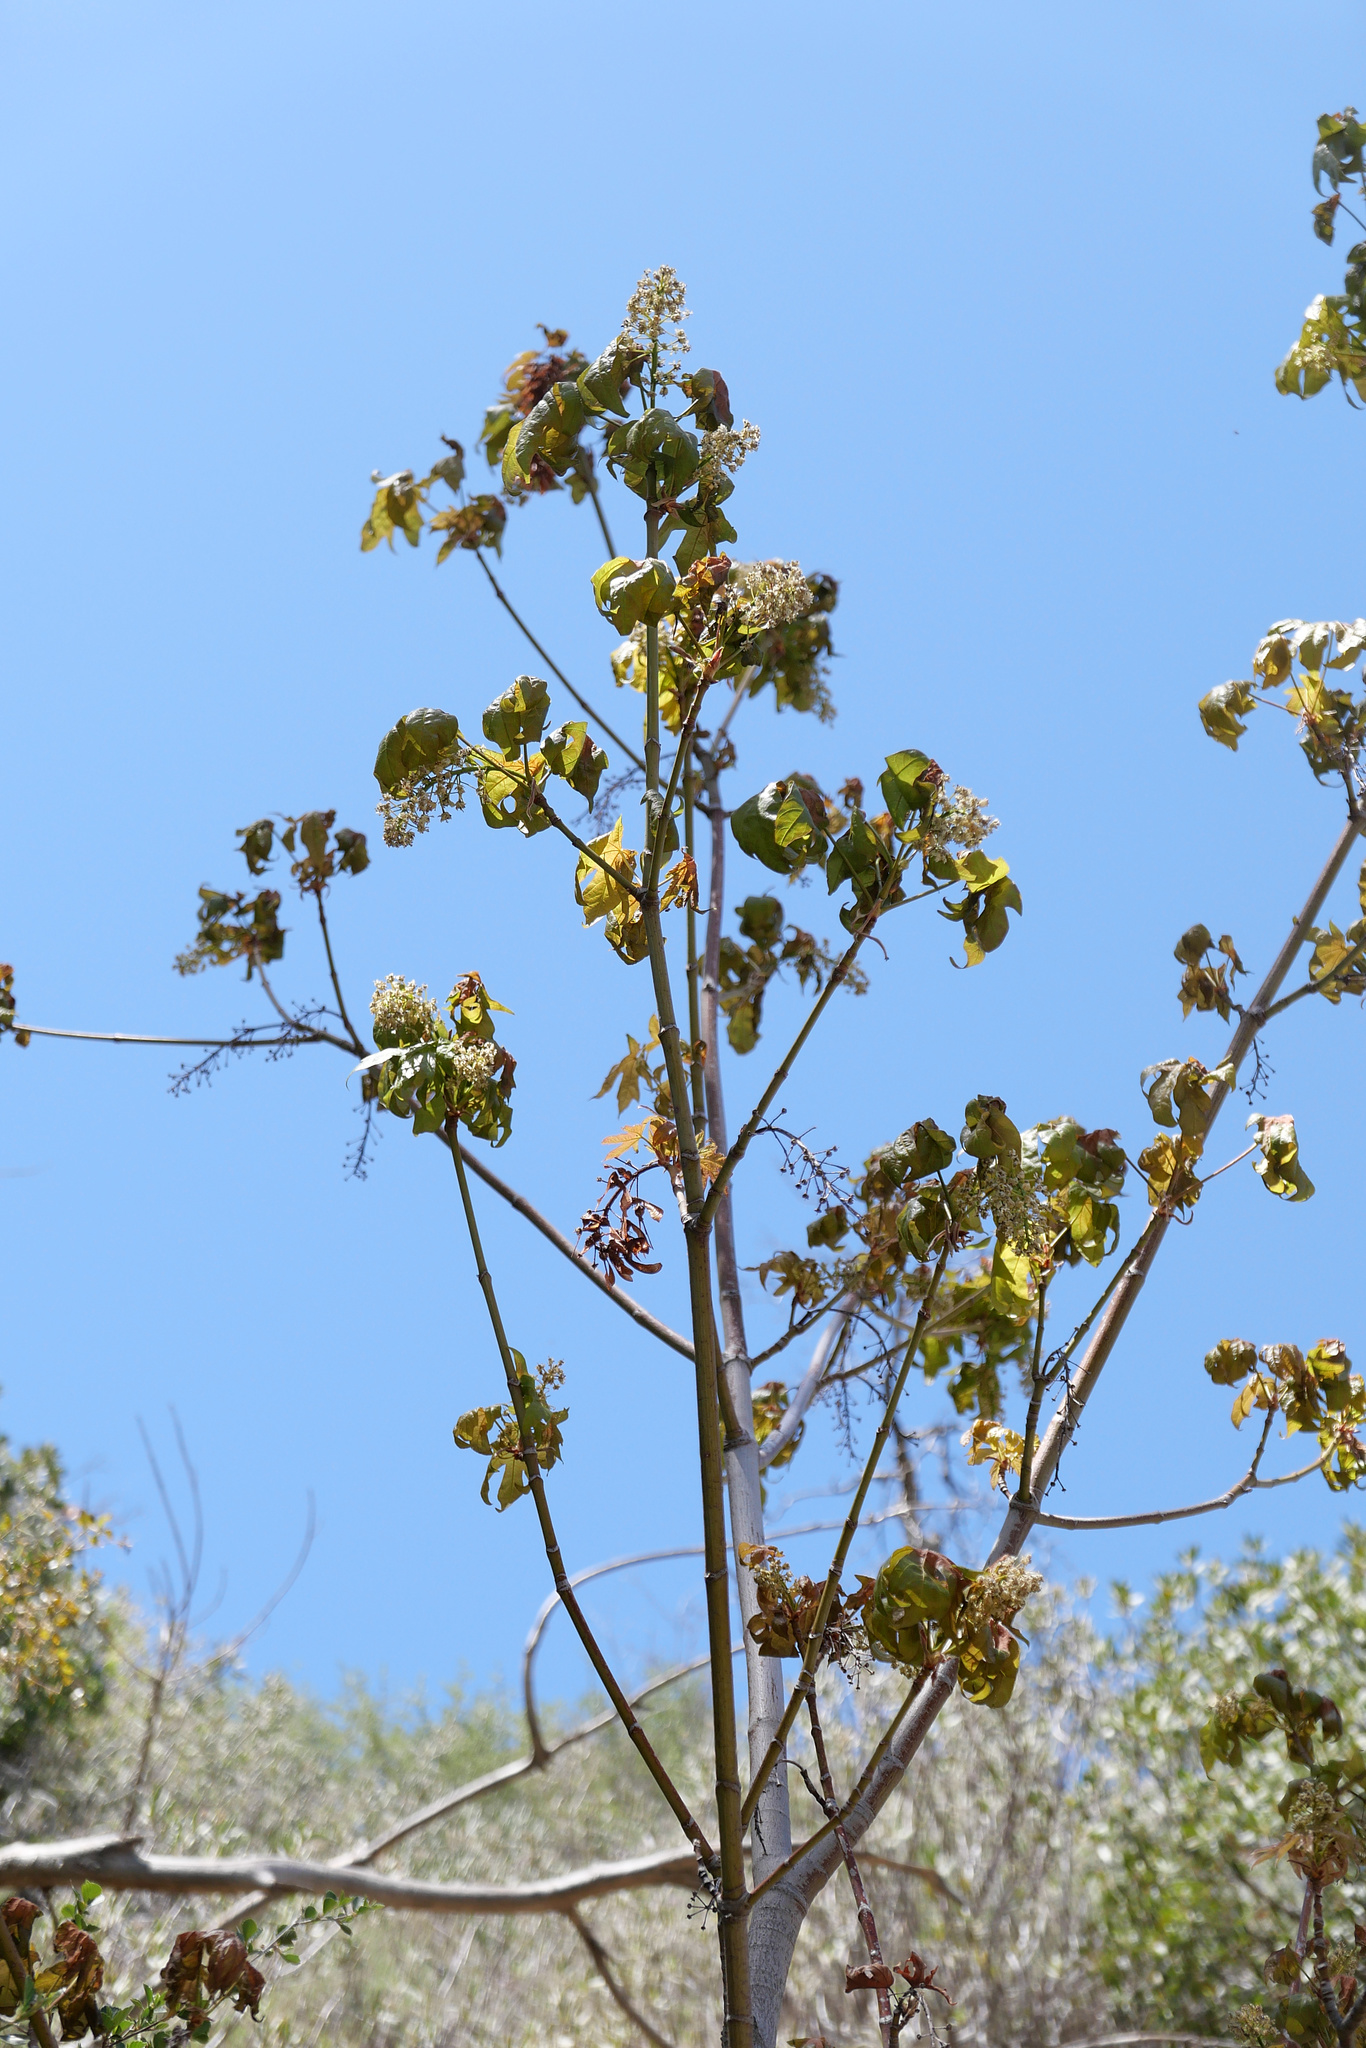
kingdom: Plantae
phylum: Tracheophyta
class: Magnoliopsida
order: Sapindales
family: Sapindaceae
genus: Acer
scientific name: Acer macrophyllum
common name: Oregon maple
